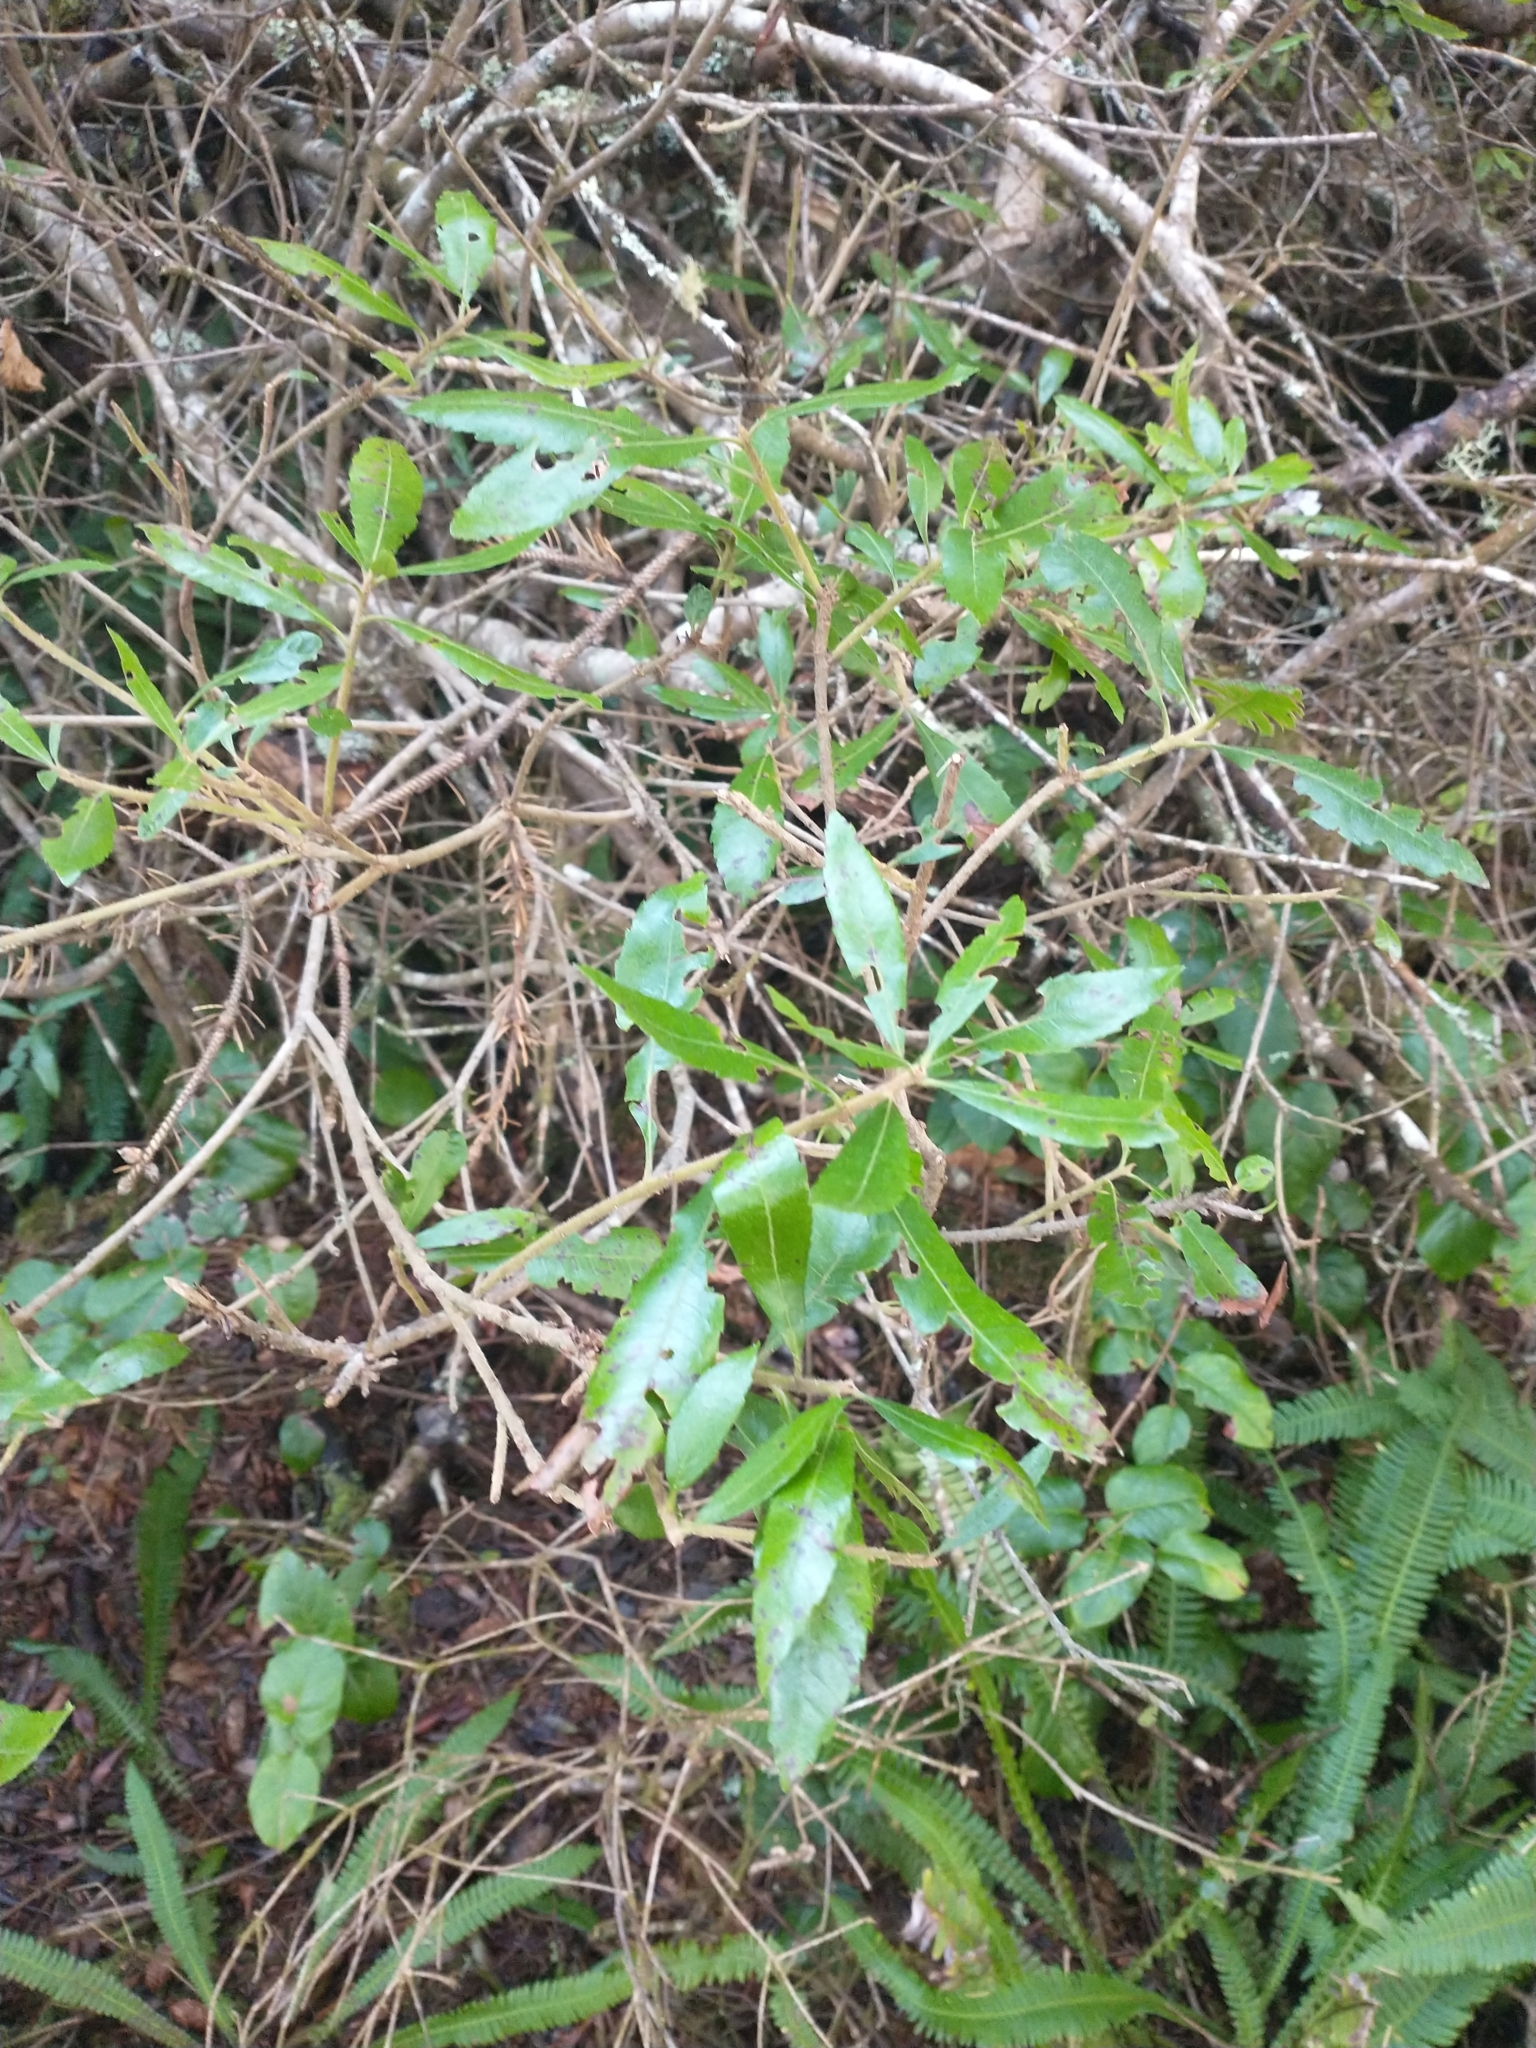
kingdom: Plantae
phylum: Tracheophyta
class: Magnoliopsida
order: Fagales
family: Myricaceae
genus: Morella
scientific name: Morella californica
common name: California wax-myrtle
